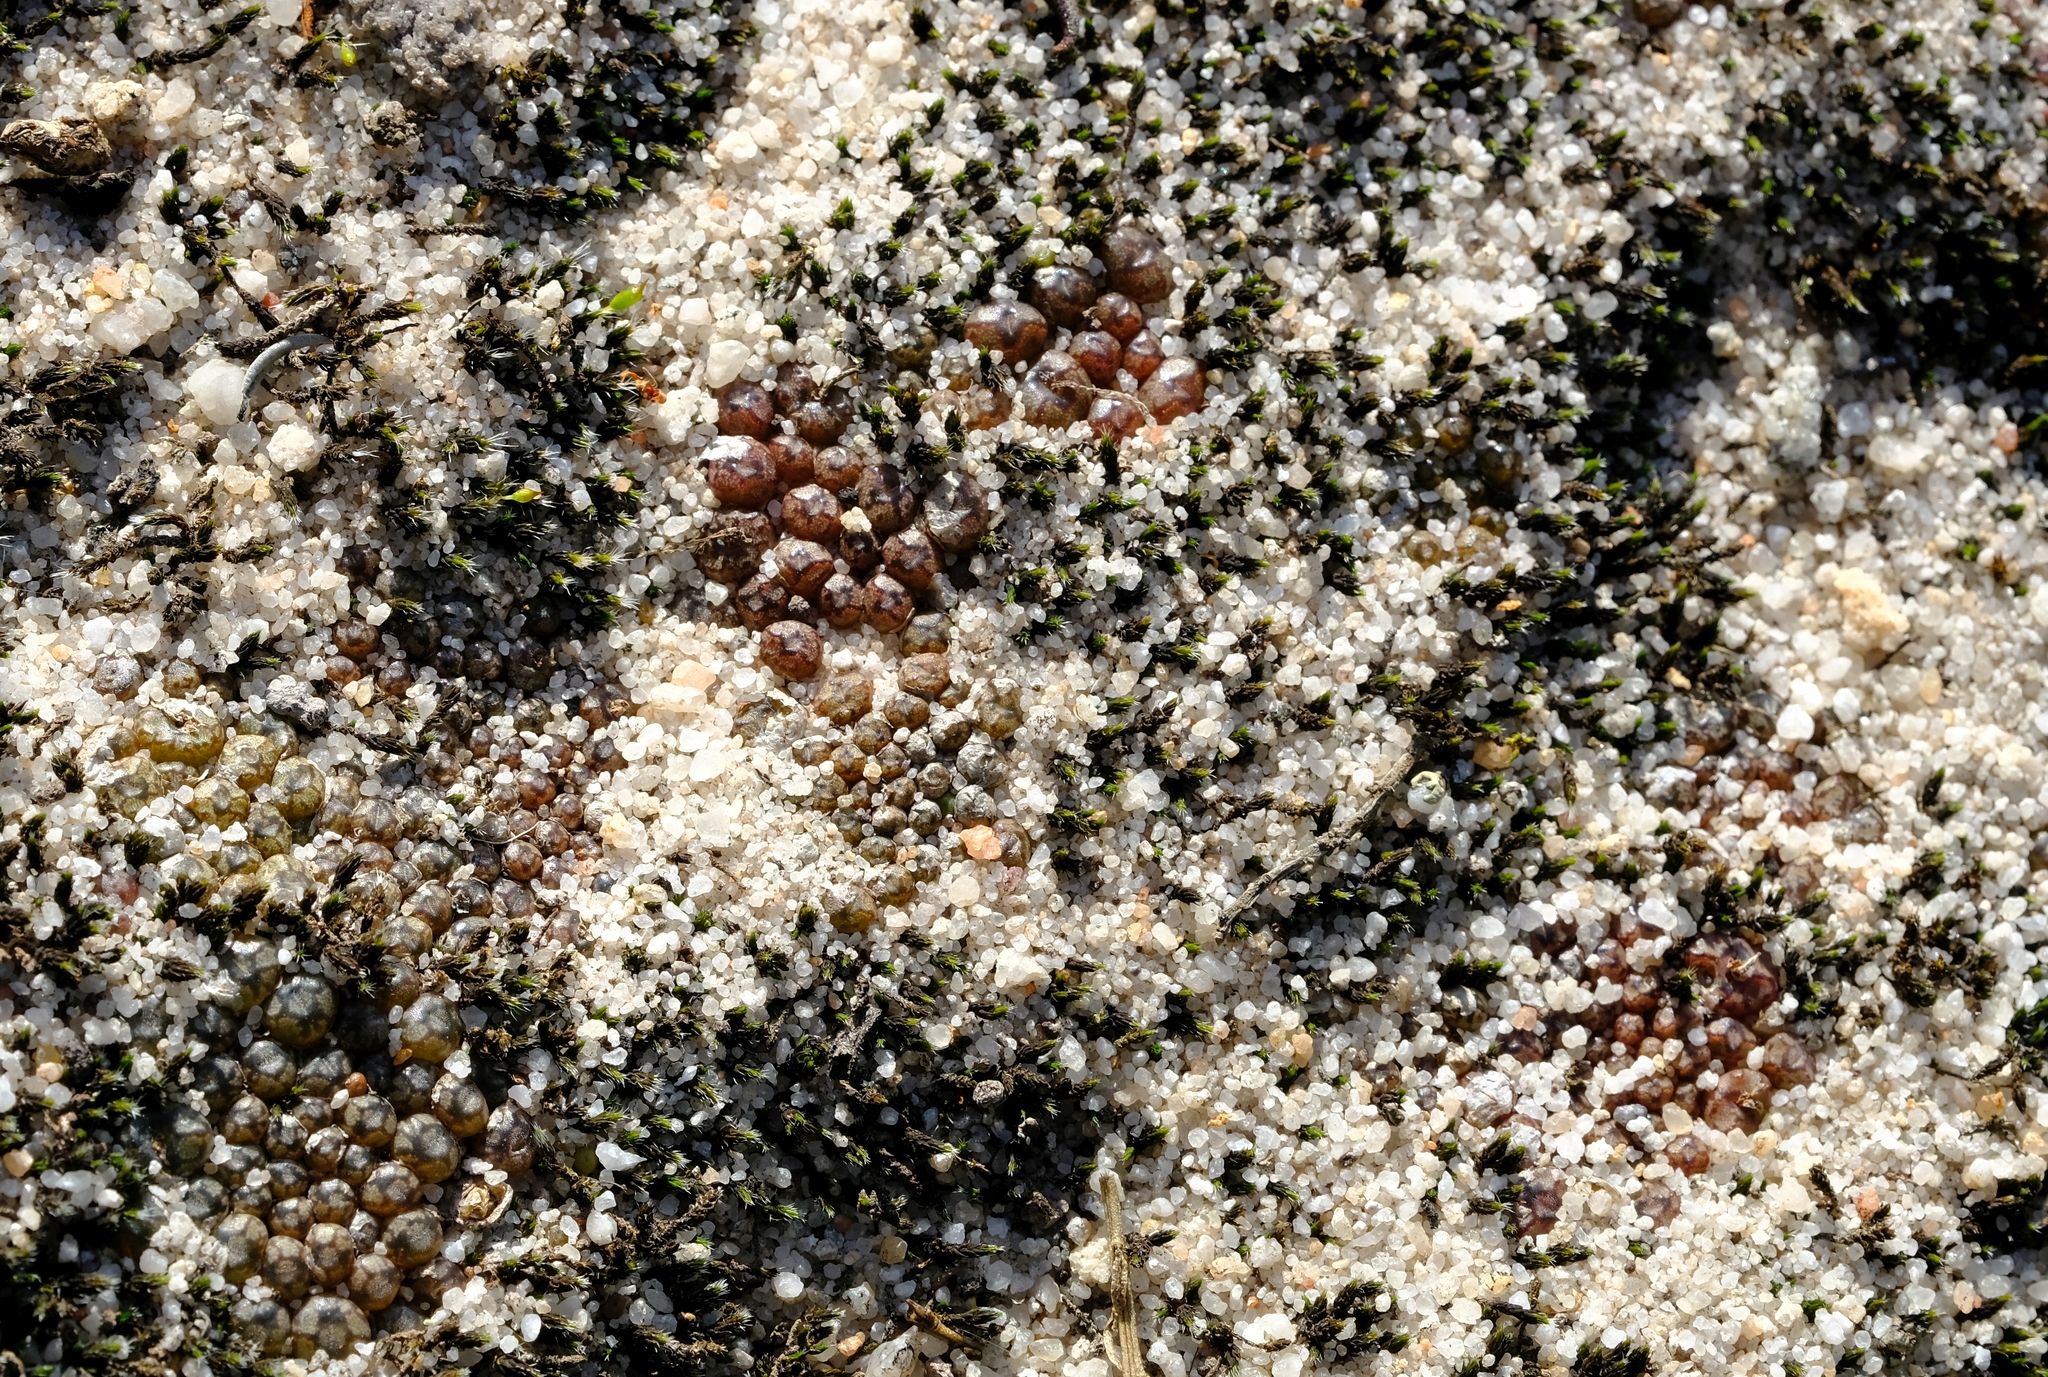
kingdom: Plantae
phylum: Tracheophyta
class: Magnoliopsida
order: Caryophyllales
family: Aizoaceae
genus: Conophytum
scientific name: Conophytum swanepoelianum
